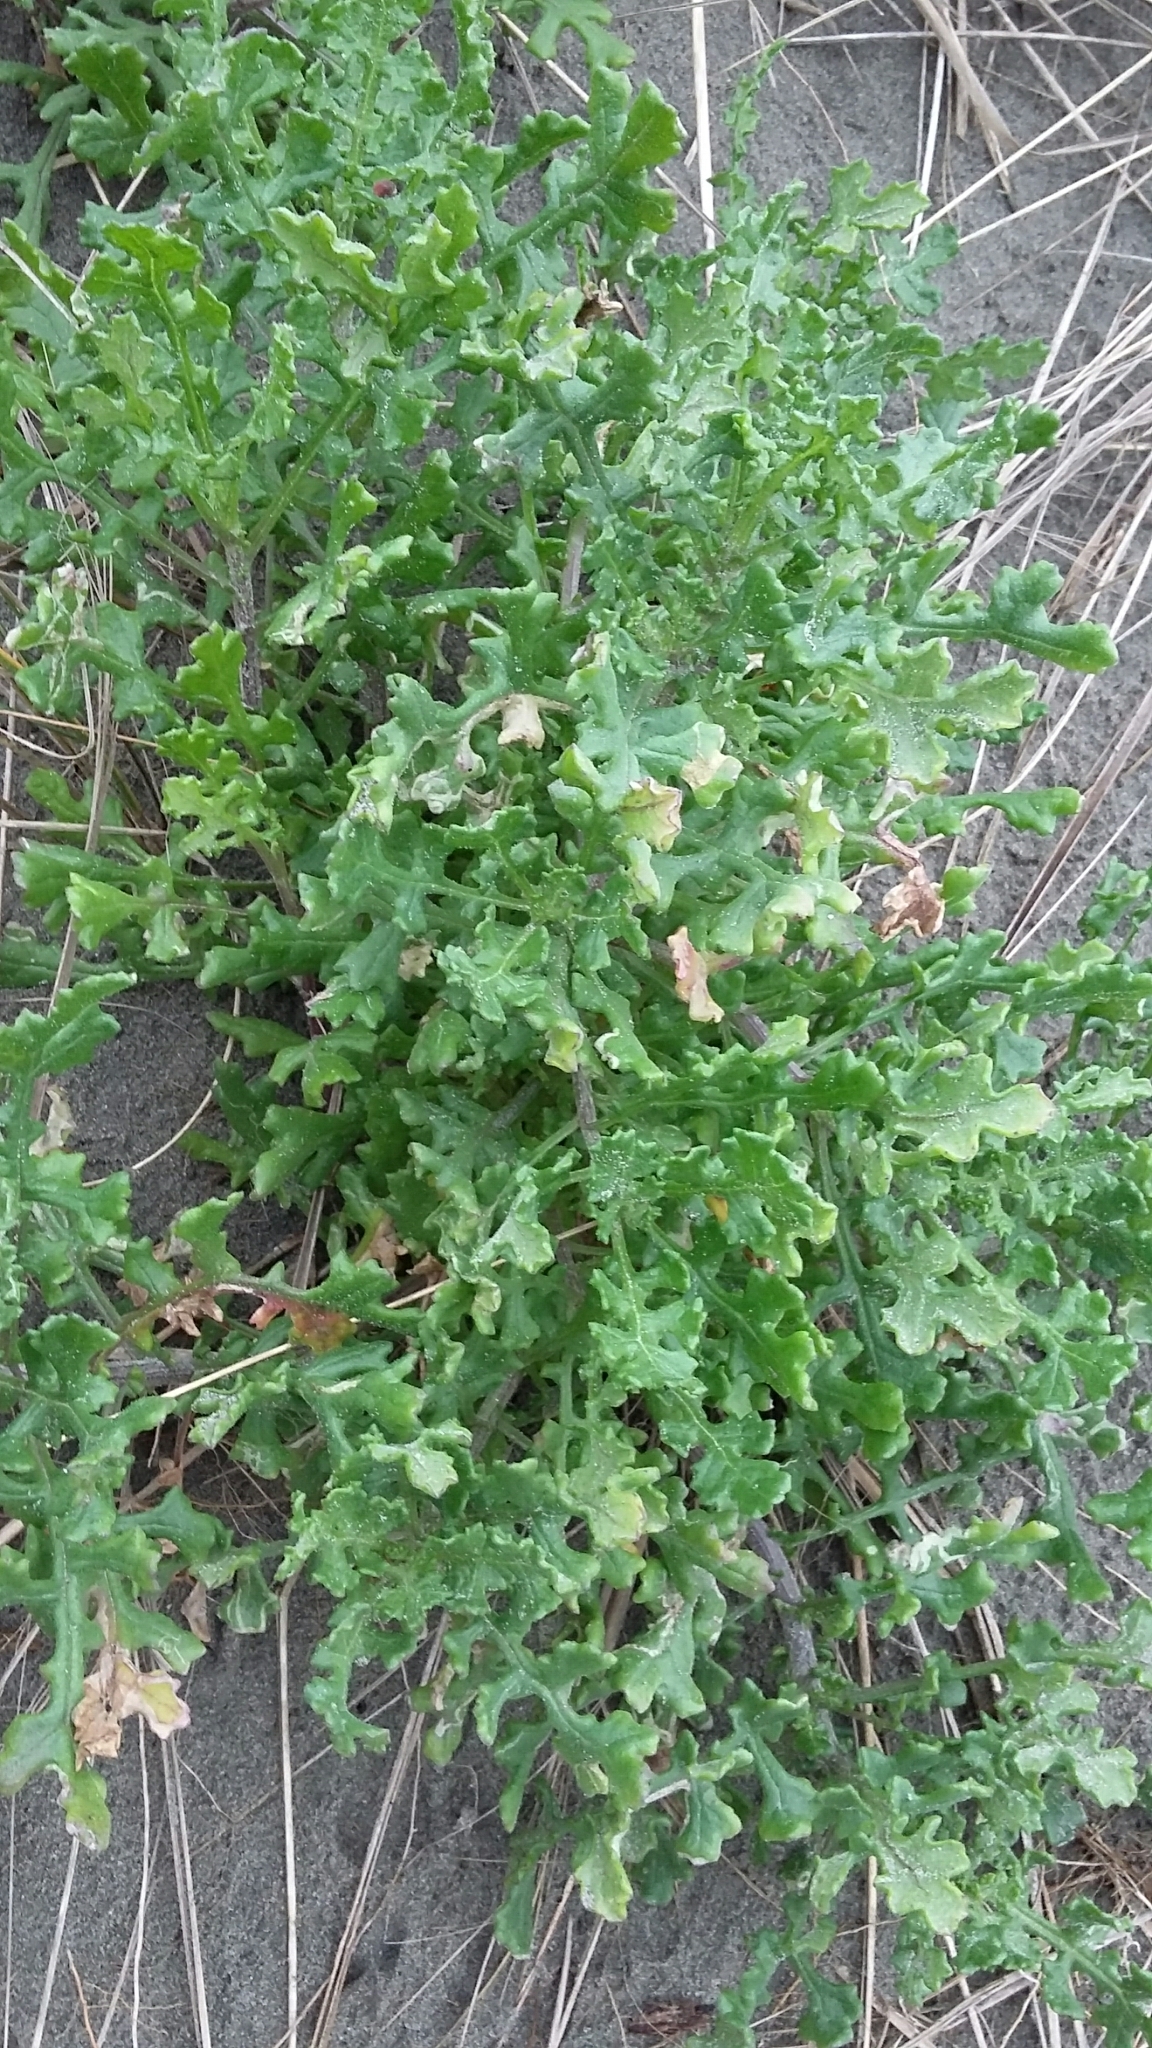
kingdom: Plantae
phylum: Tracheophyta
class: Magnoliopsida
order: Asterales
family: Asteraceae
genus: Senecio
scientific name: Senecio elegans
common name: Purple groundsel
